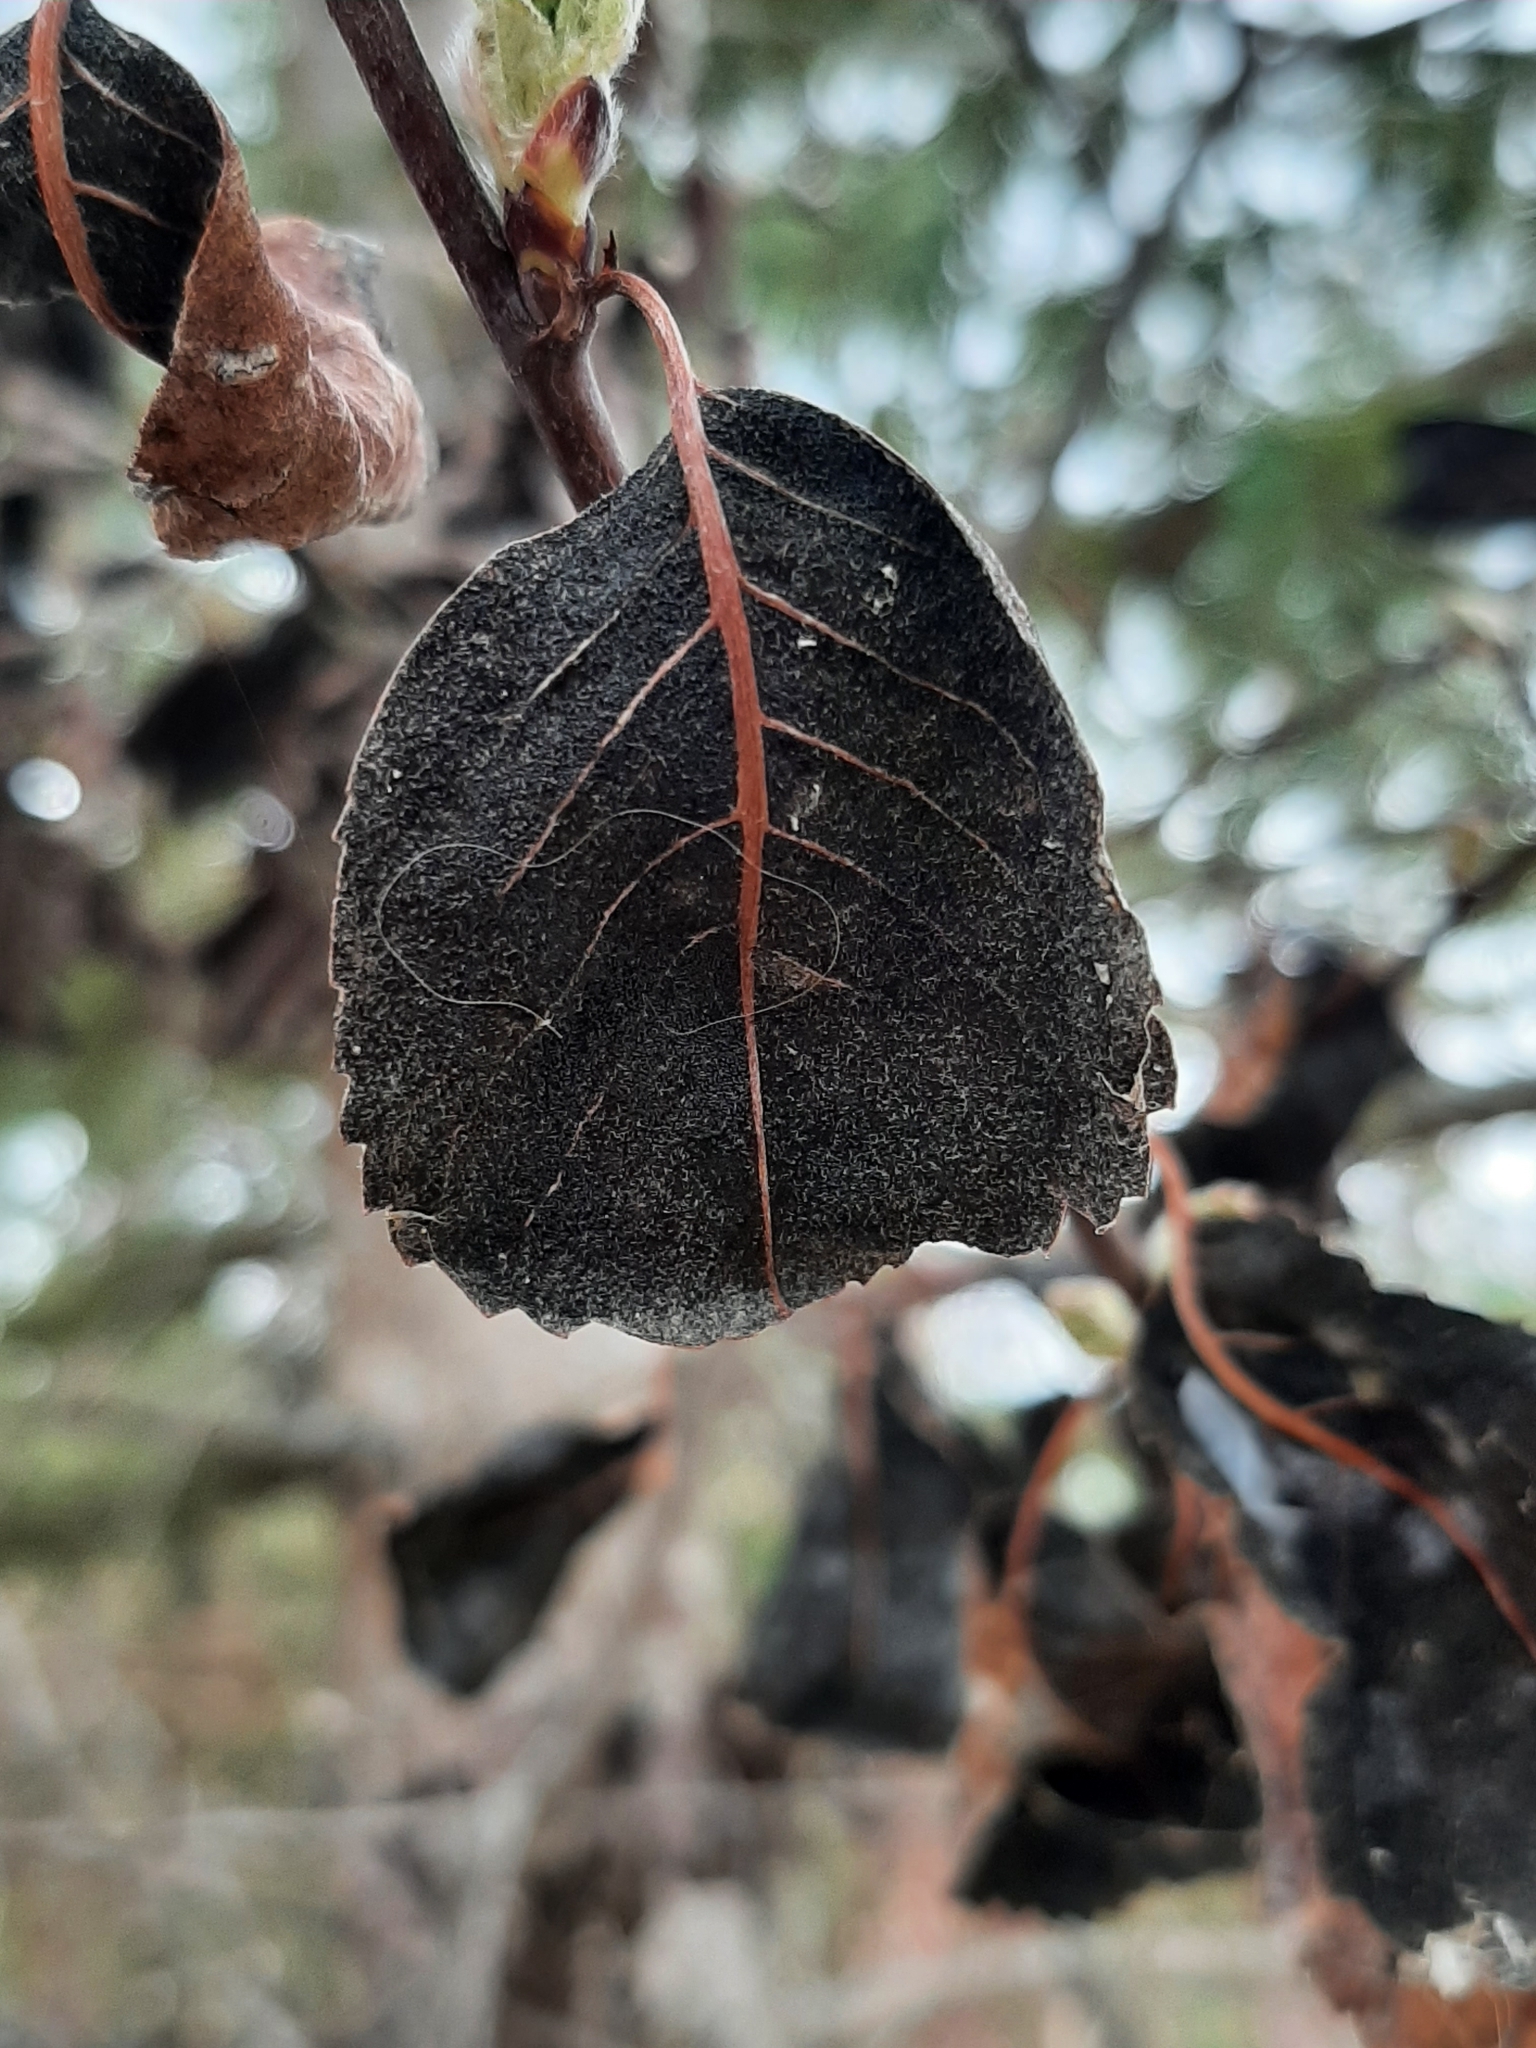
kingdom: Fungi
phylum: Ascomycota
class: Dothideomycetes
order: Venturiales
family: Venturiaceae
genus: Apiosporina
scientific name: Apiosporina collinsii
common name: Black leaf
